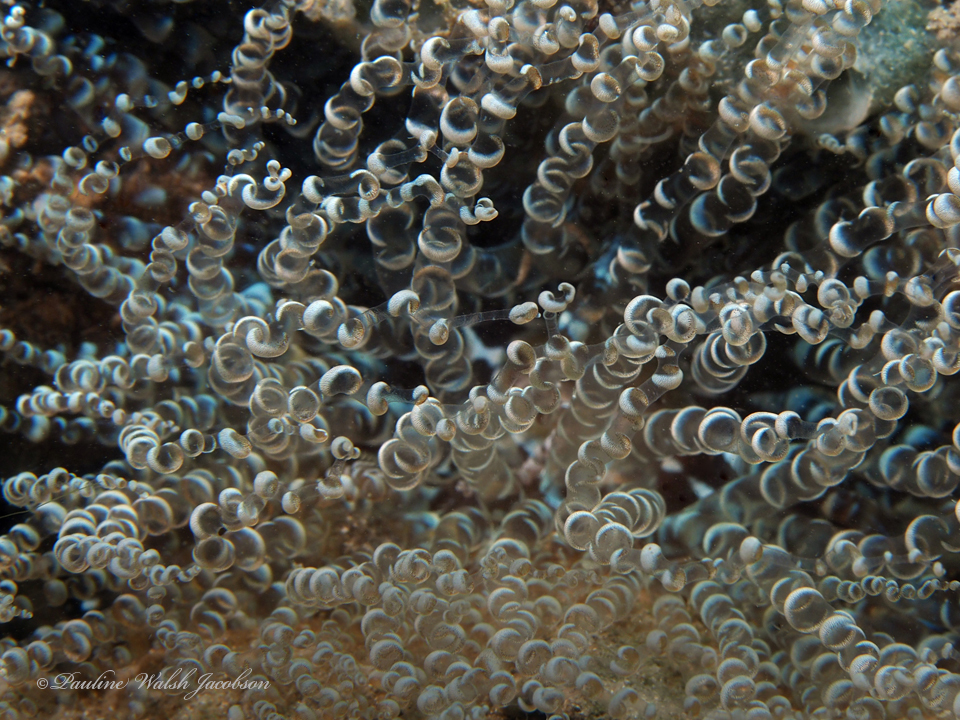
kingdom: Animalia
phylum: Cnidaria
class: Anthozoa
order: Actiniaria
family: Aiptasiidae
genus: Bartholomea
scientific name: Bartholomea annulata
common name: Corkscrew anemone
